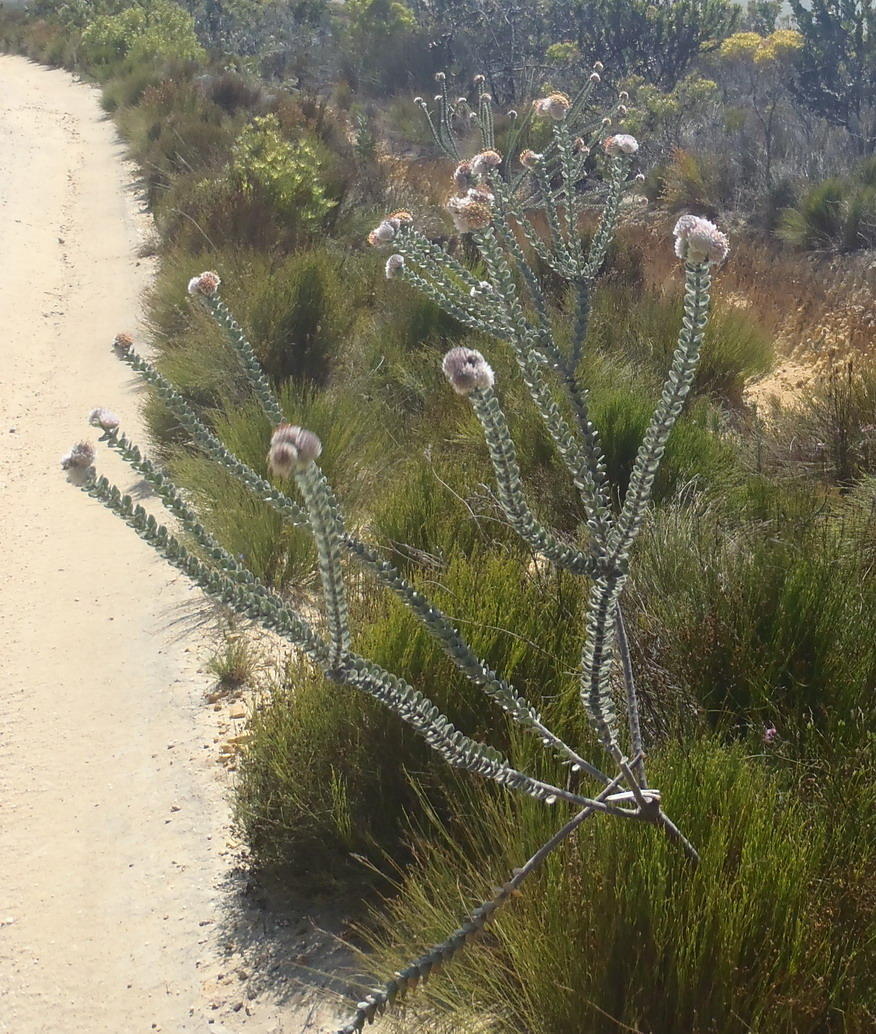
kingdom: Plantae
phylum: Tracheophyta
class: Magnoliopsida
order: Proteales
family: Proteaceae
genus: Leucospermum
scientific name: Leucospermum truncatulum
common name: Oval-leaf pincushion
